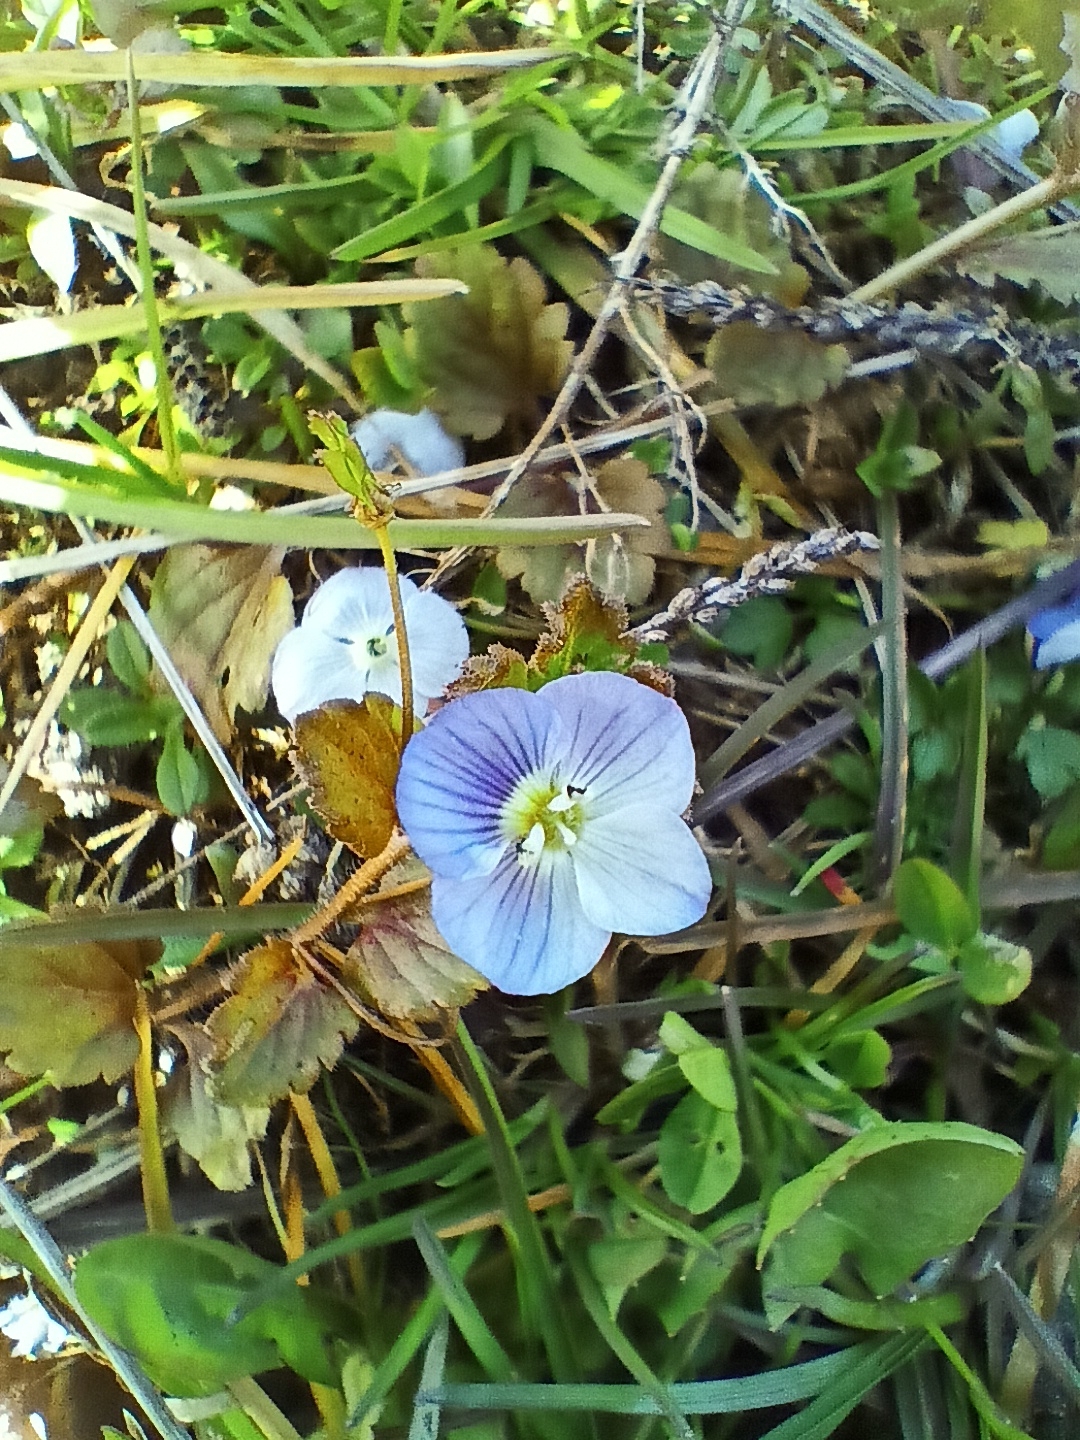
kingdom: Plantae
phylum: Tracheophyta
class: Magnoliopsida
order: Lamiales
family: Plantaginaceae
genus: Veronica
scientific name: Veronica persica
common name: Common field-speedwell
